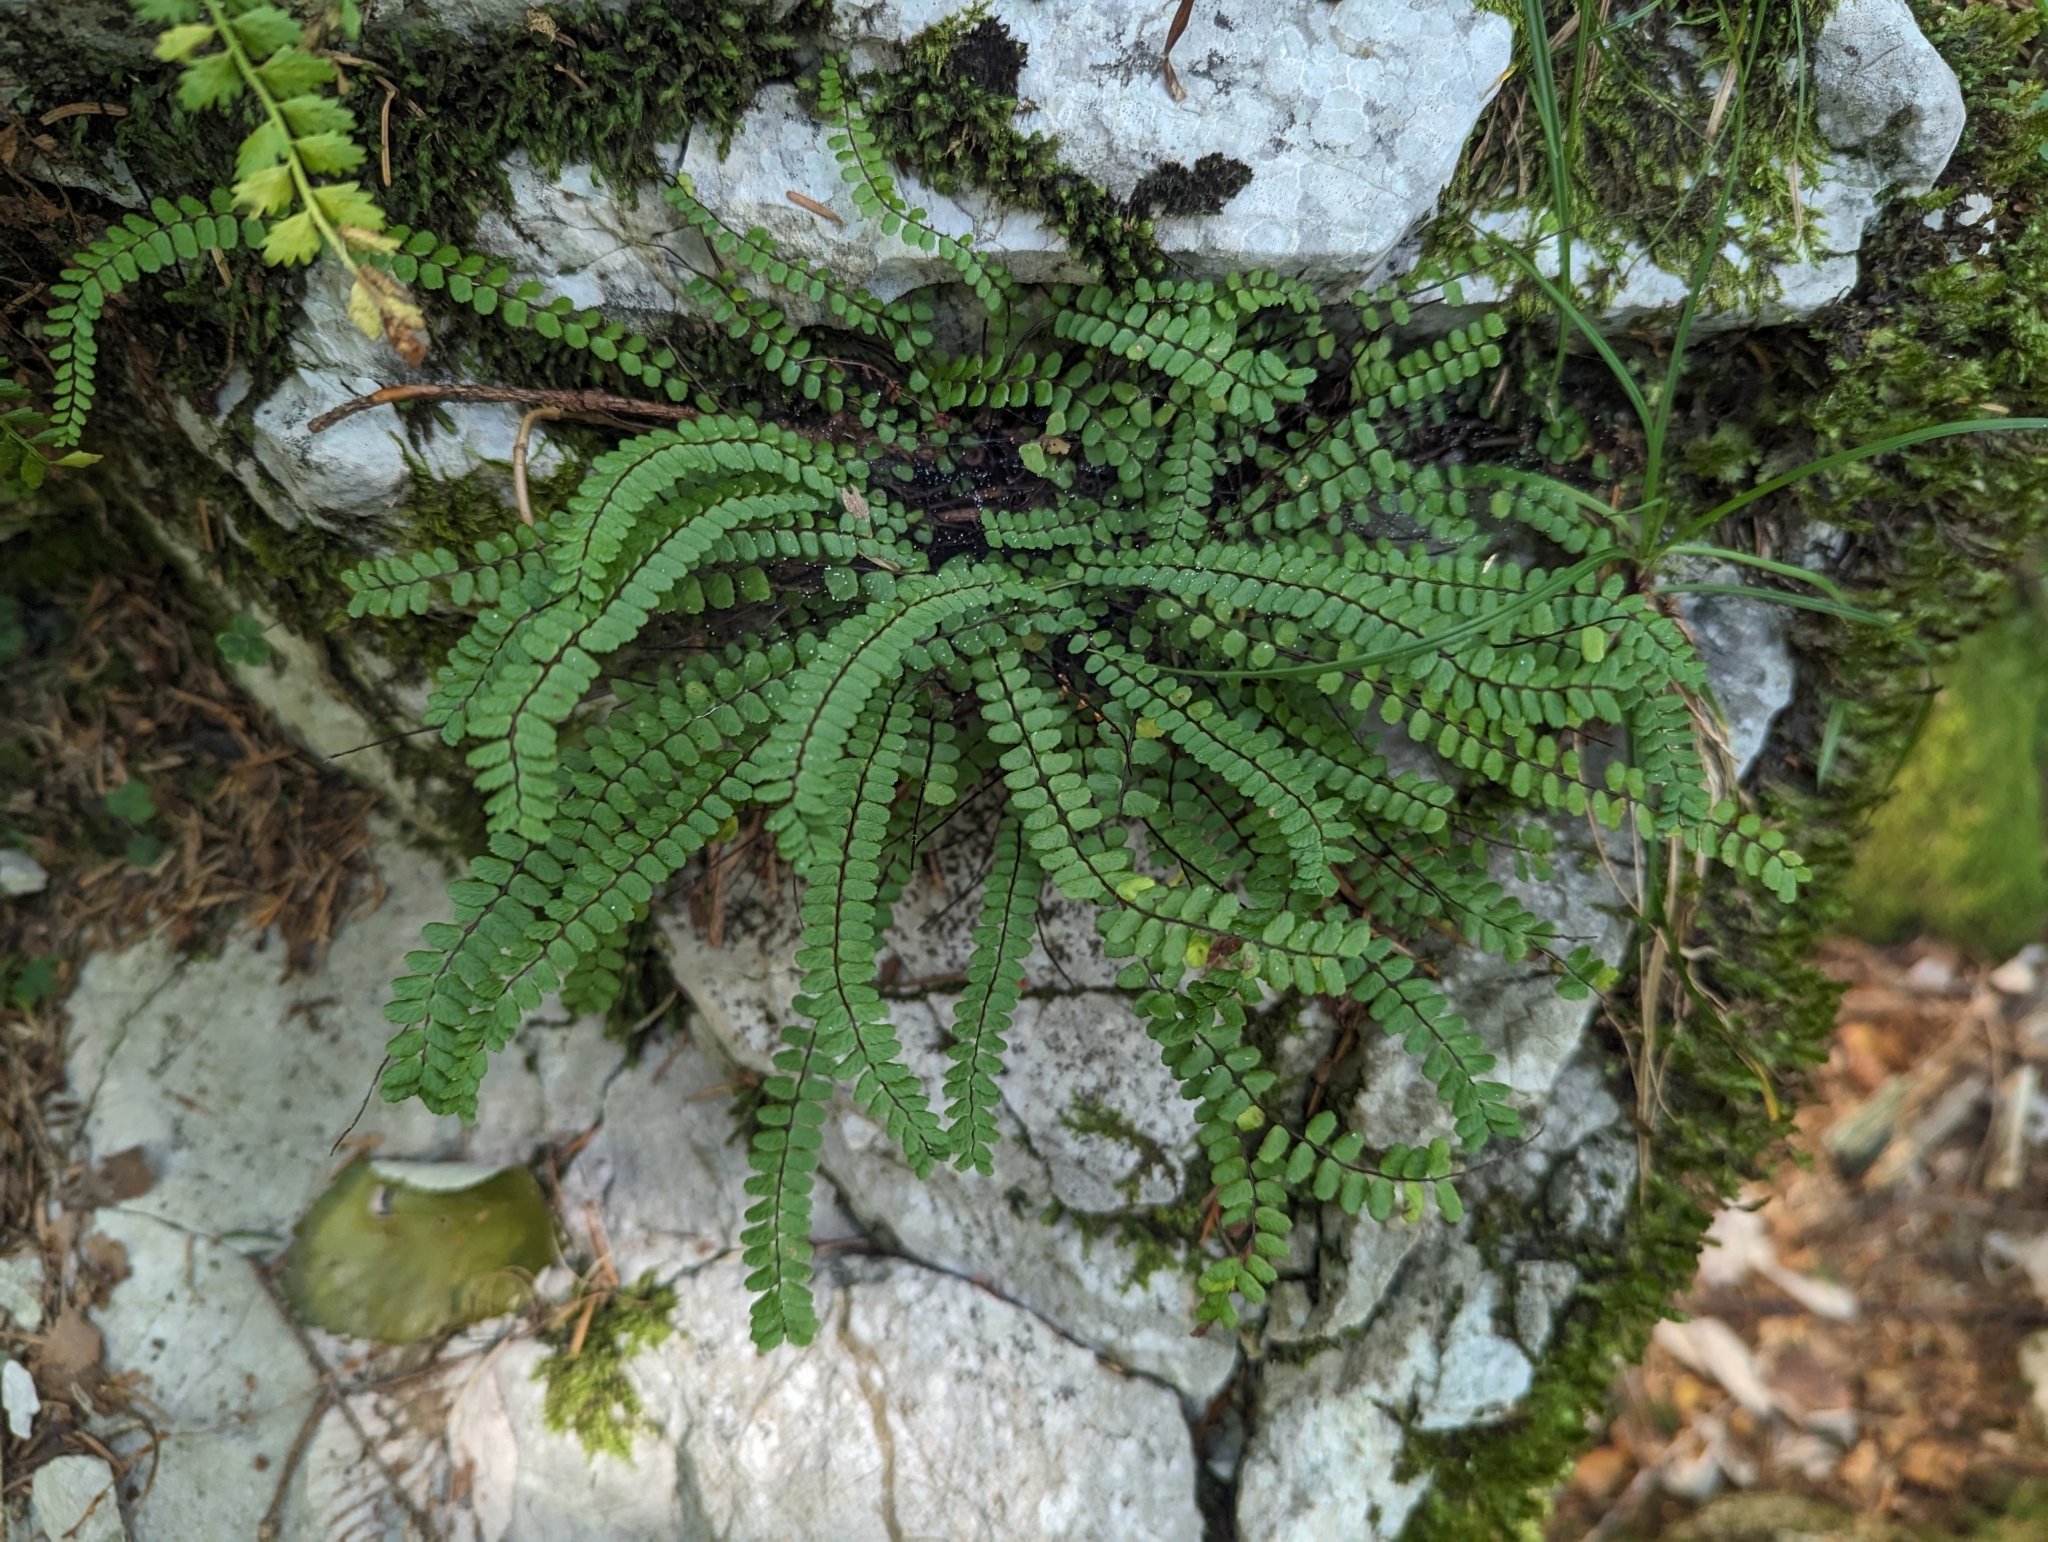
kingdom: Plantae
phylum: Tracheophyta
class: Polypodiopsida
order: Polypodiales
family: Aspleniaceae
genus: Asplenium
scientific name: Asplenium trichomanes
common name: Maidenhair spleenwort
